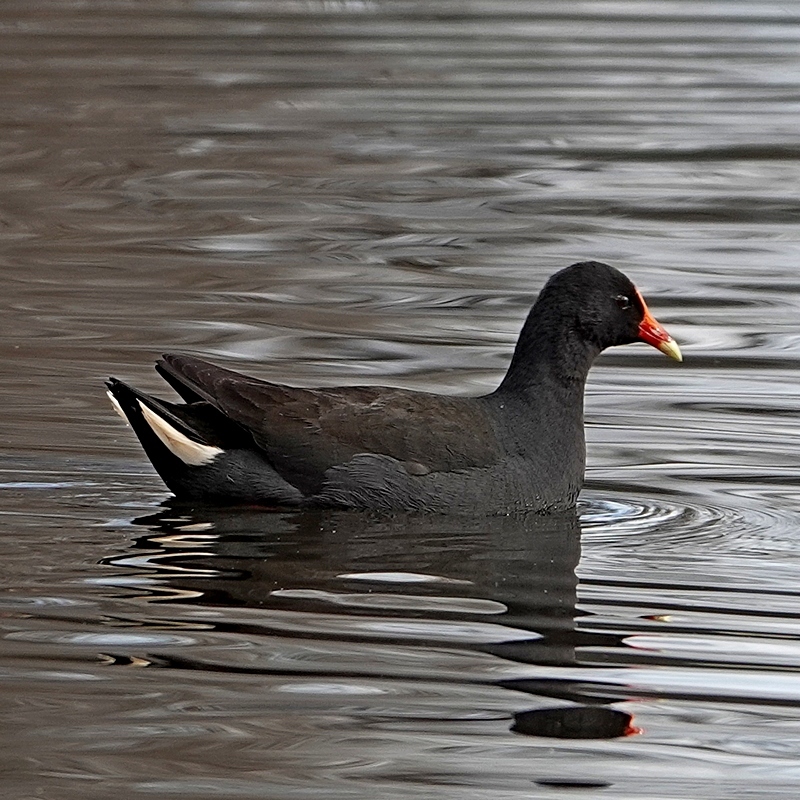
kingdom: Animalia
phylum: Chordata
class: Aves
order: Gruiformes
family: Rallidae
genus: Gallinula
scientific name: Gallinula tenebrosa
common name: Dusky moorhen
